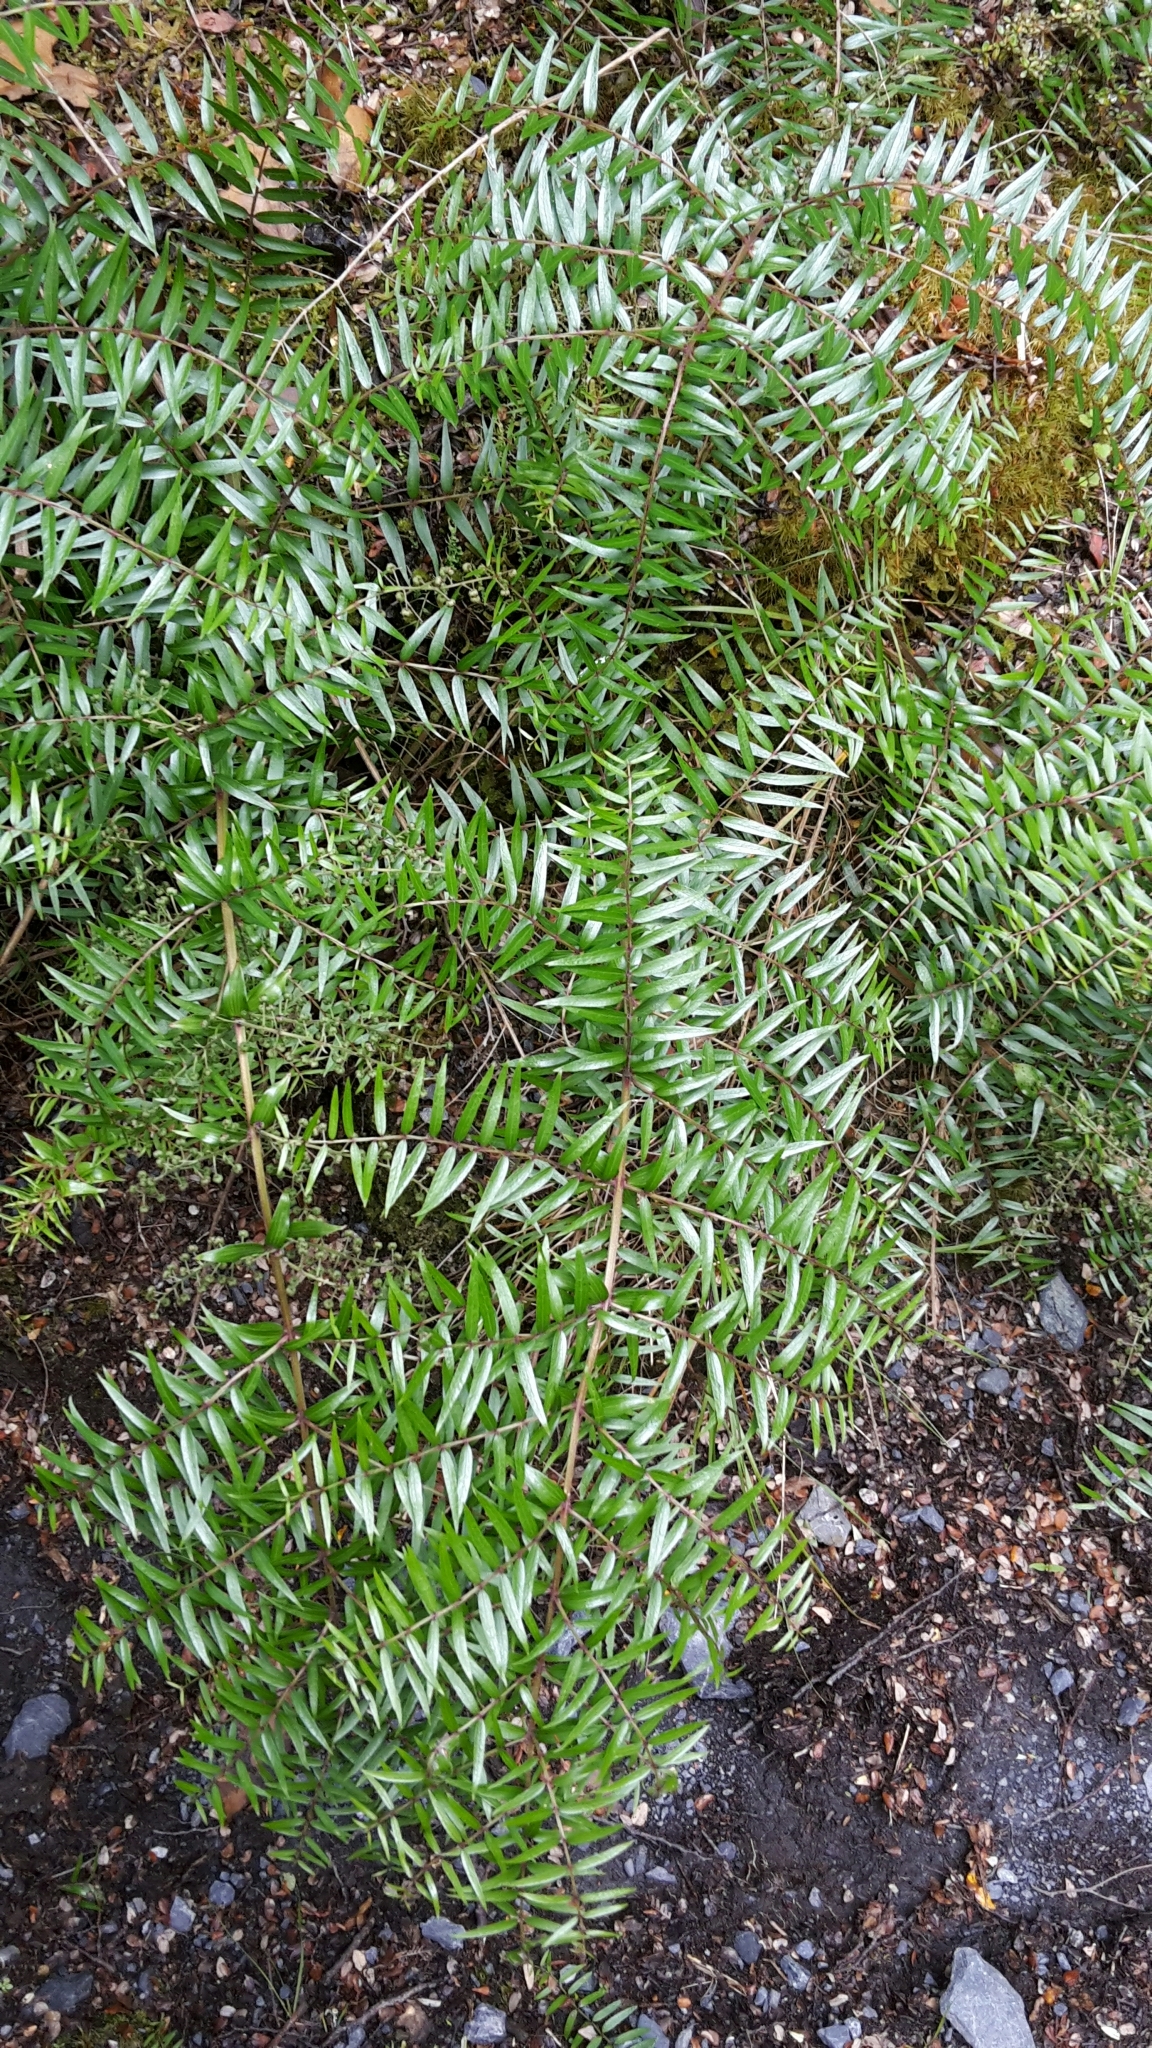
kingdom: Plantae
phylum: Tracheophyta
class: Magnoliopsida
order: Cucurbitales
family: Coriariaceae
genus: Coriaria
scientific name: Coriaria pteridoides
